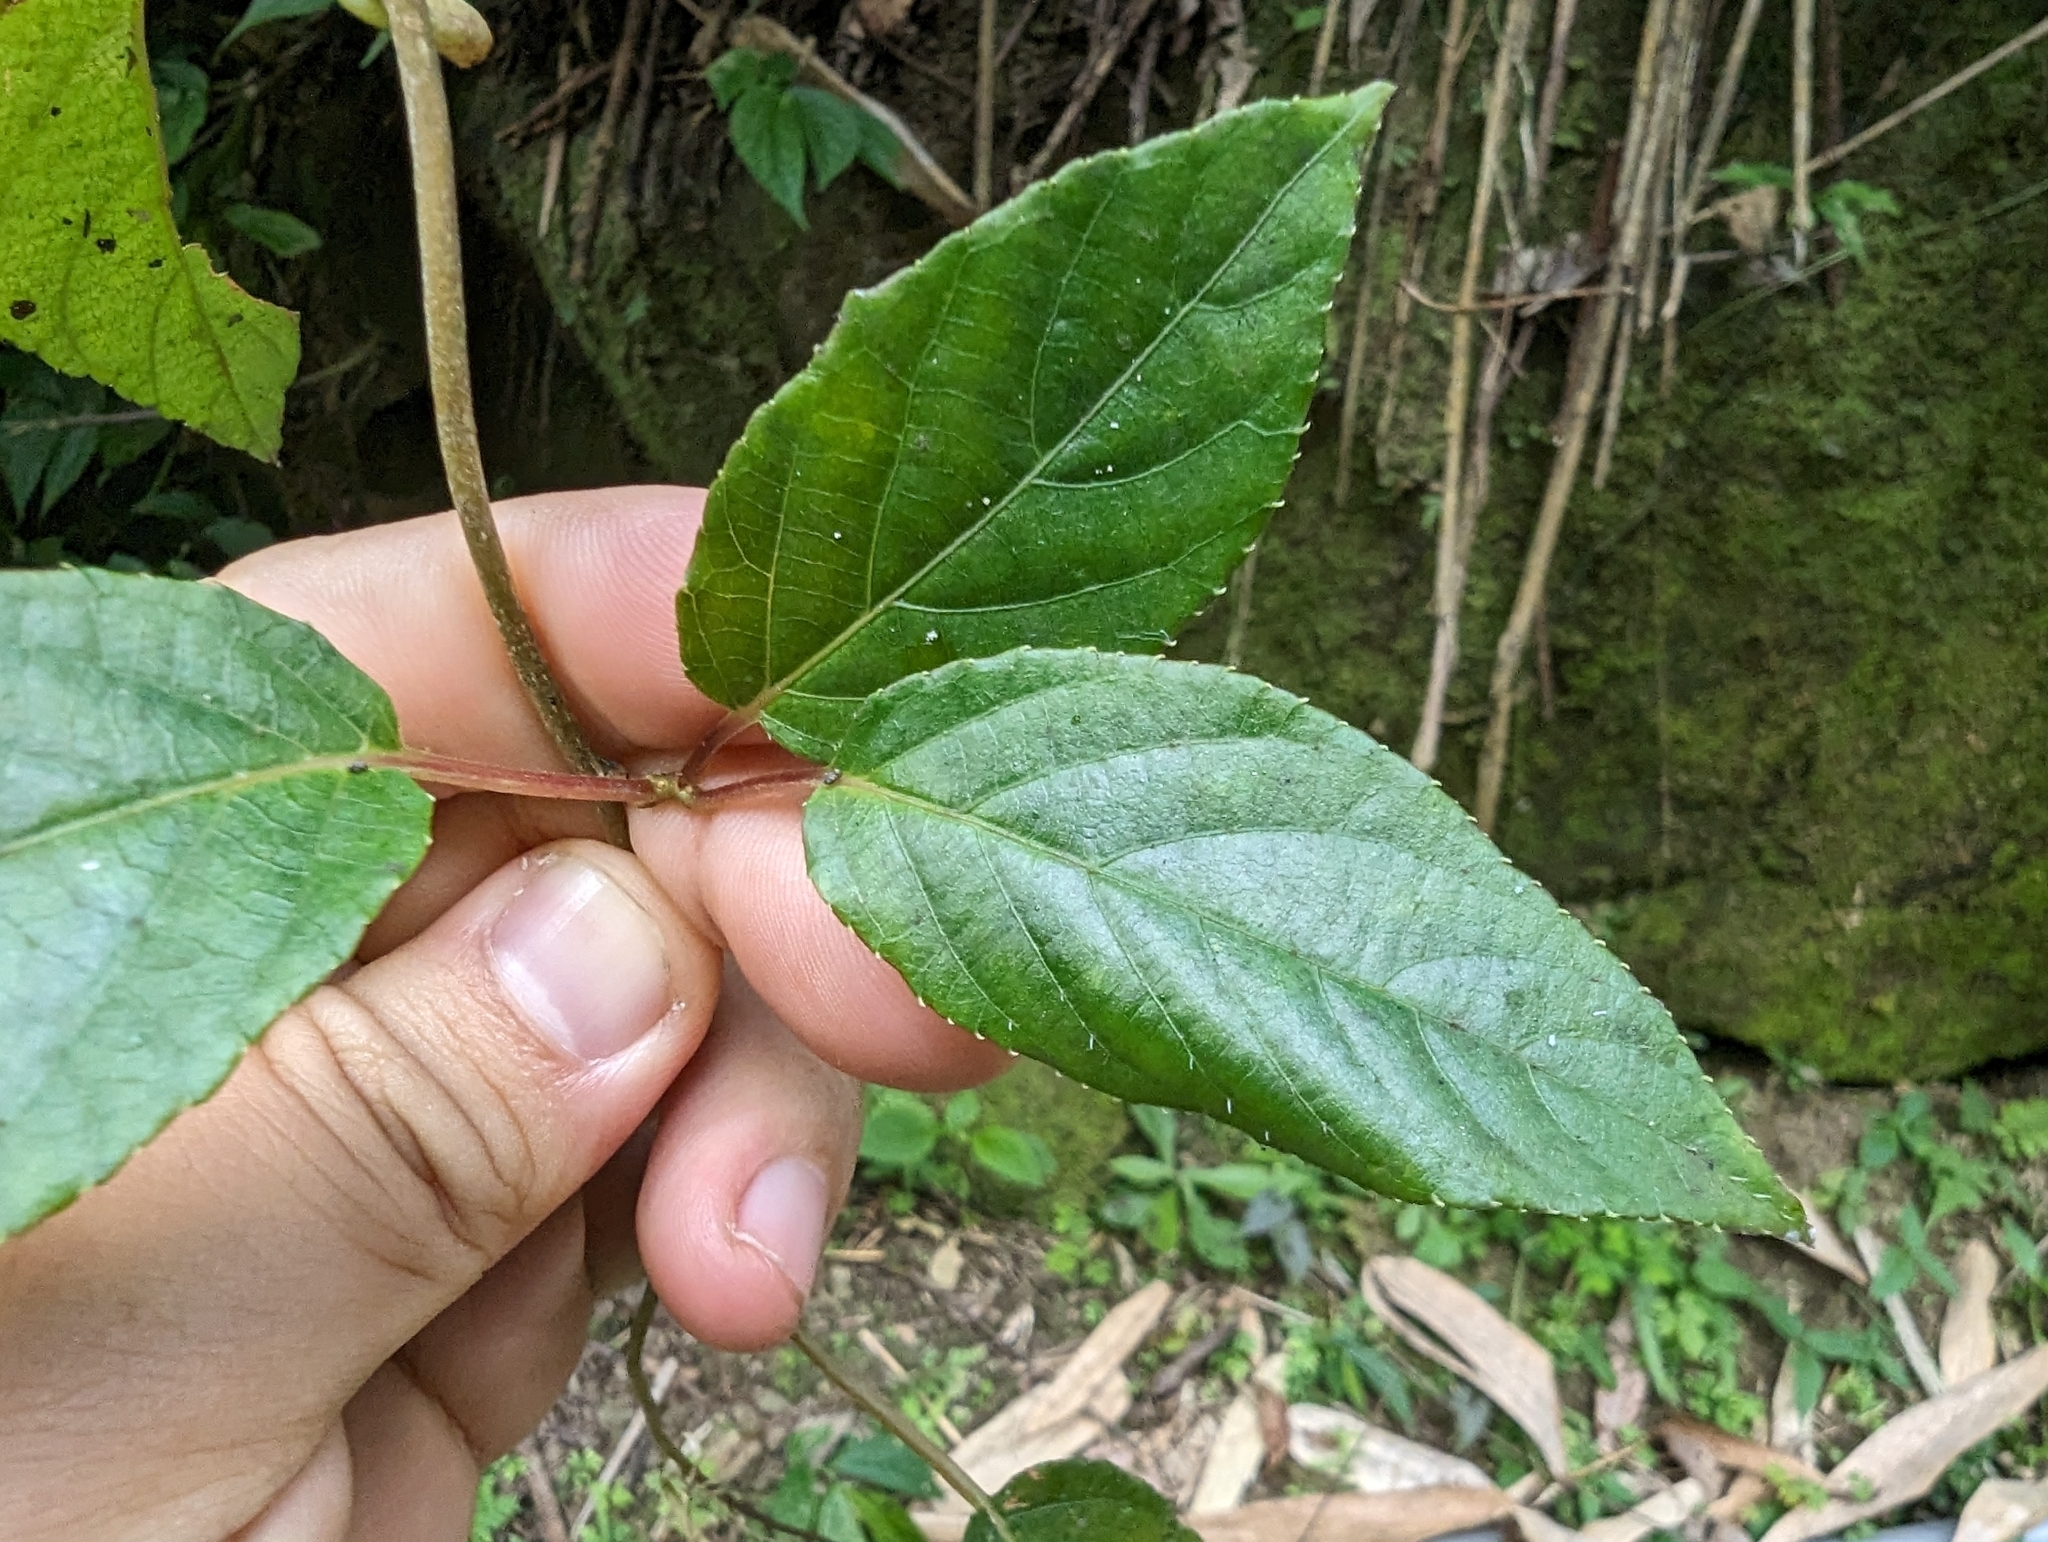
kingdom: Plantae
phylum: Tracheophyta
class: Magnoliopsida
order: Ericales
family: Actinidiaceae
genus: Actinidia
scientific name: Actinidia rufa
